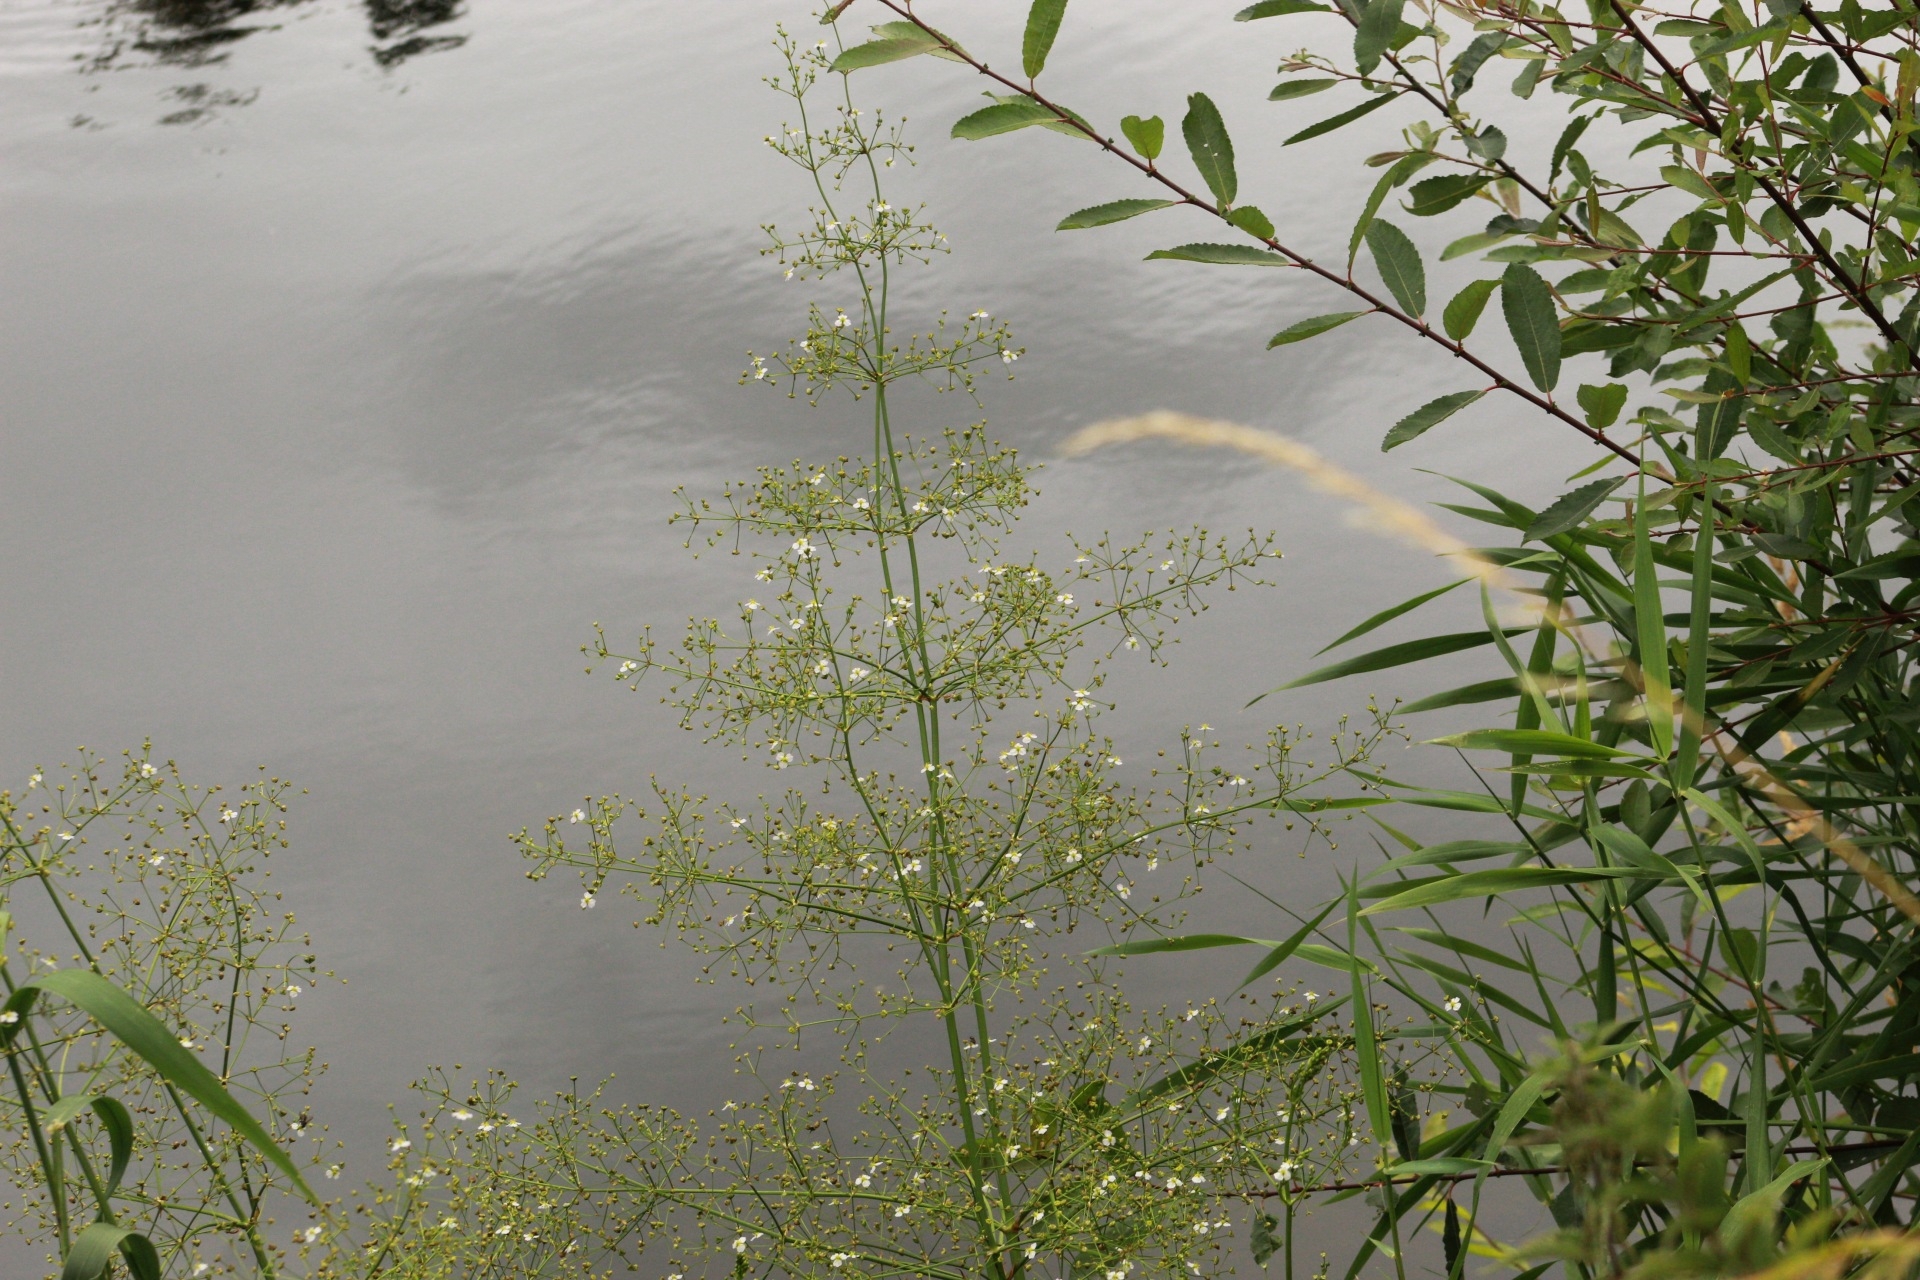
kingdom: Plantae
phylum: Tracheophyta
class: Liliopsida
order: Alismatales
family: Alismataceae
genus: Alisma
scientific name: Alisma plantago-aquatica
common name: Water-plantain
